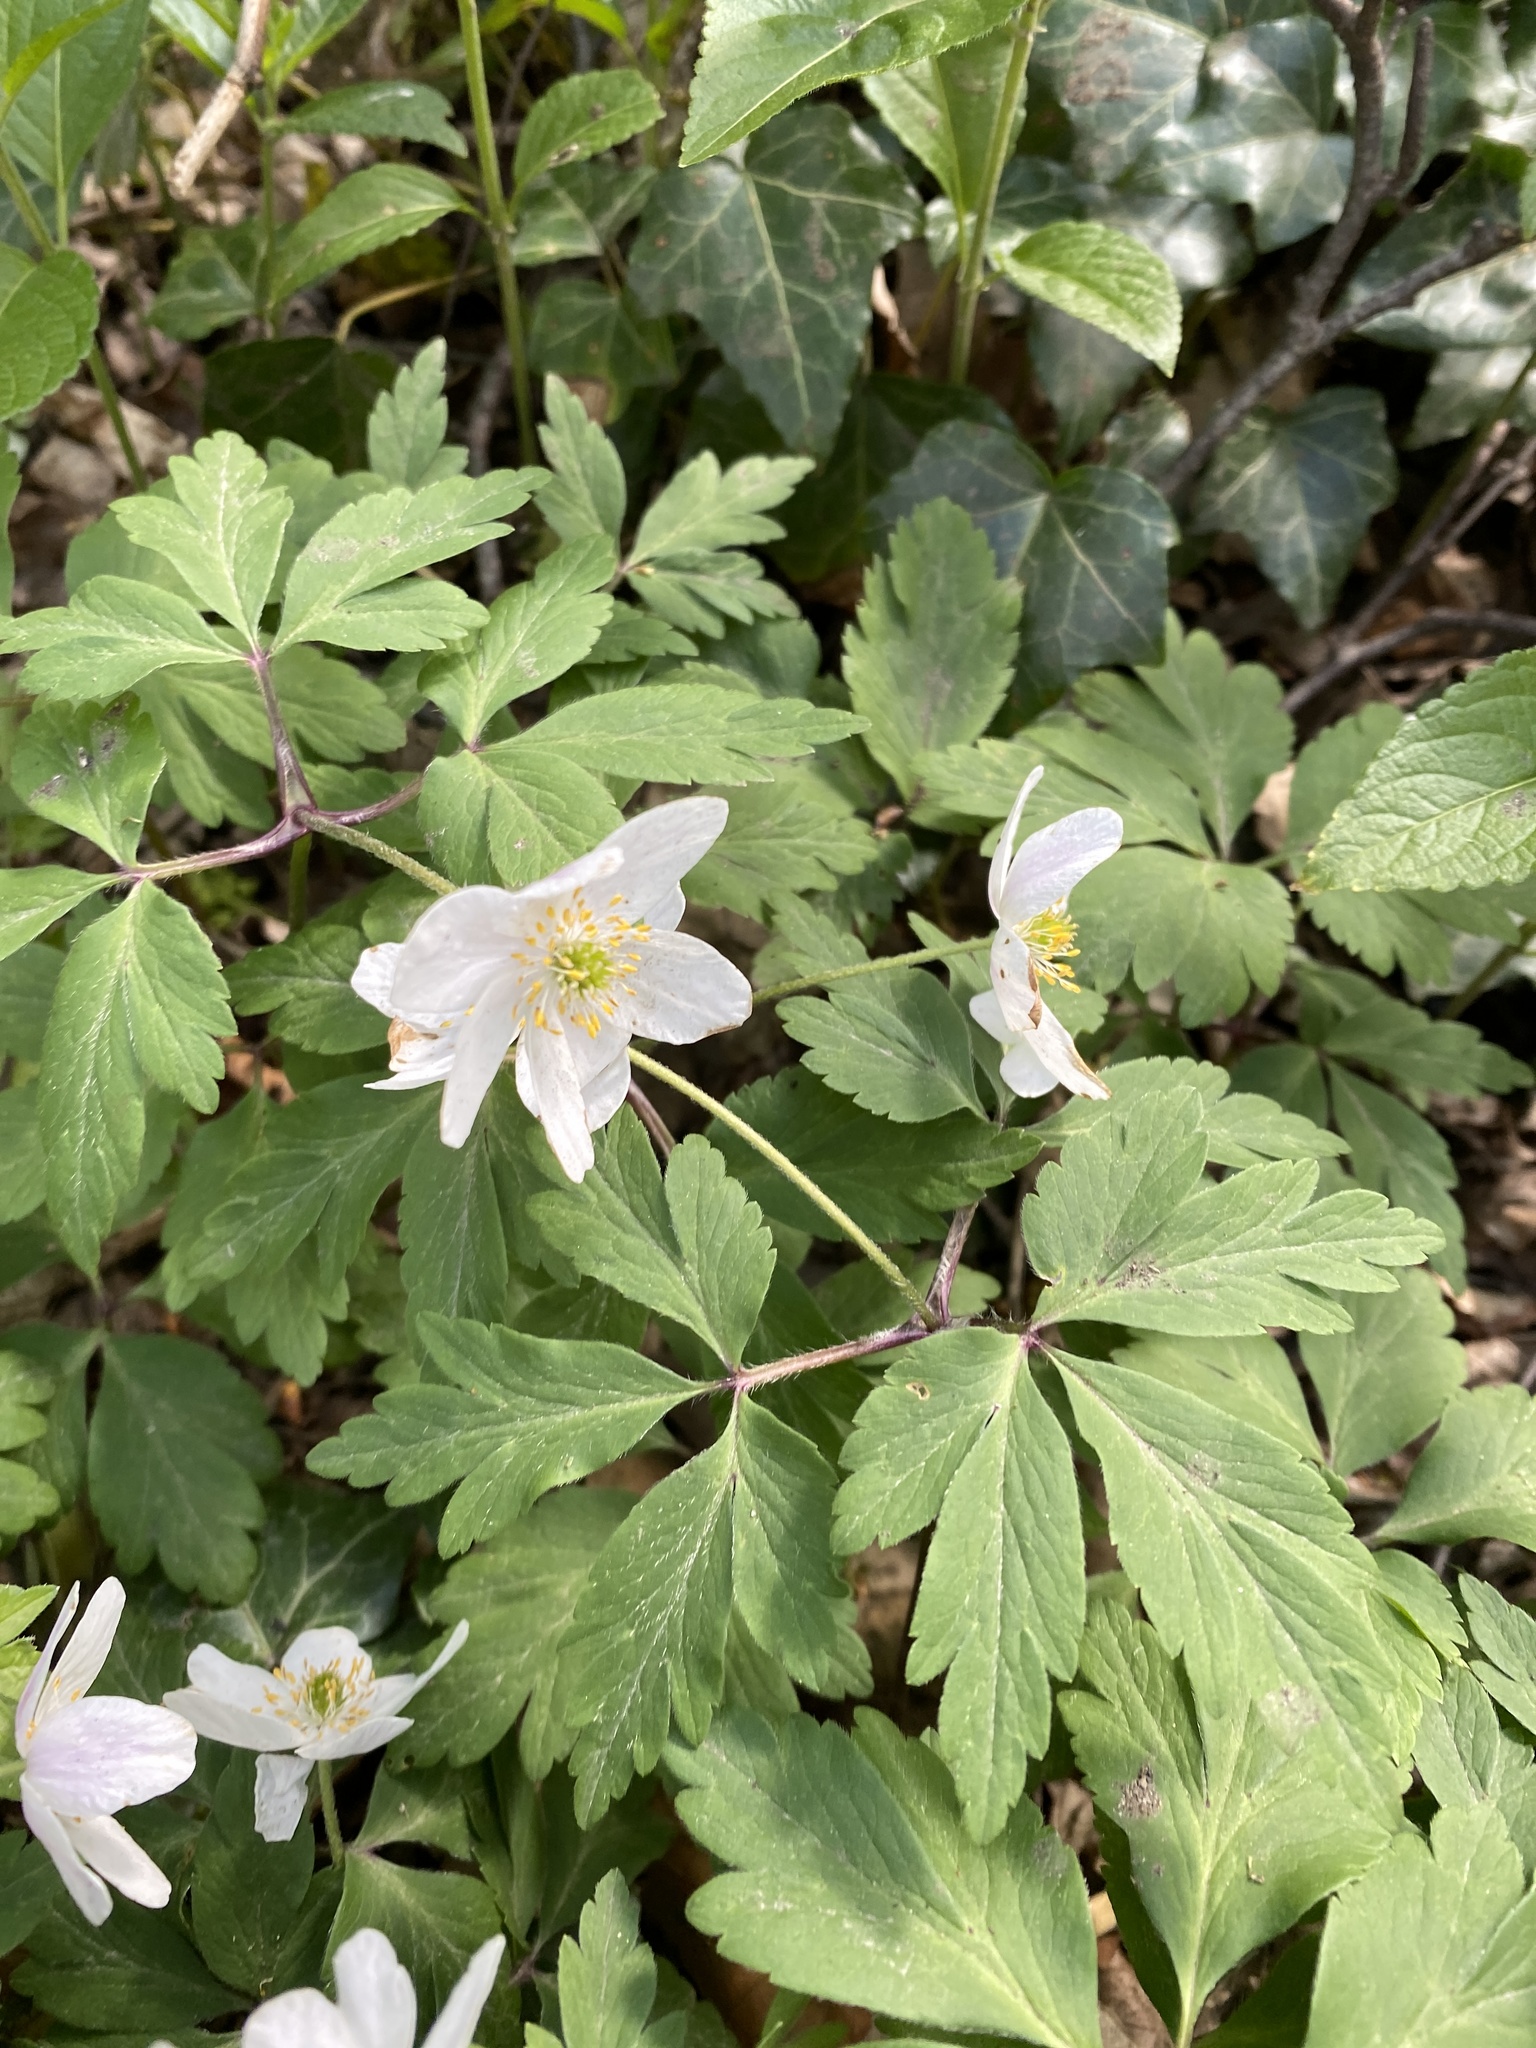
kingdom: Plantae
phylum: Tracheophyta
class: Magnoliopsida
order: Ranunculales
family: Ranunculaceae
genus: Anemone
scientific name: Anemone nemorosa
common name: Wood anemone
